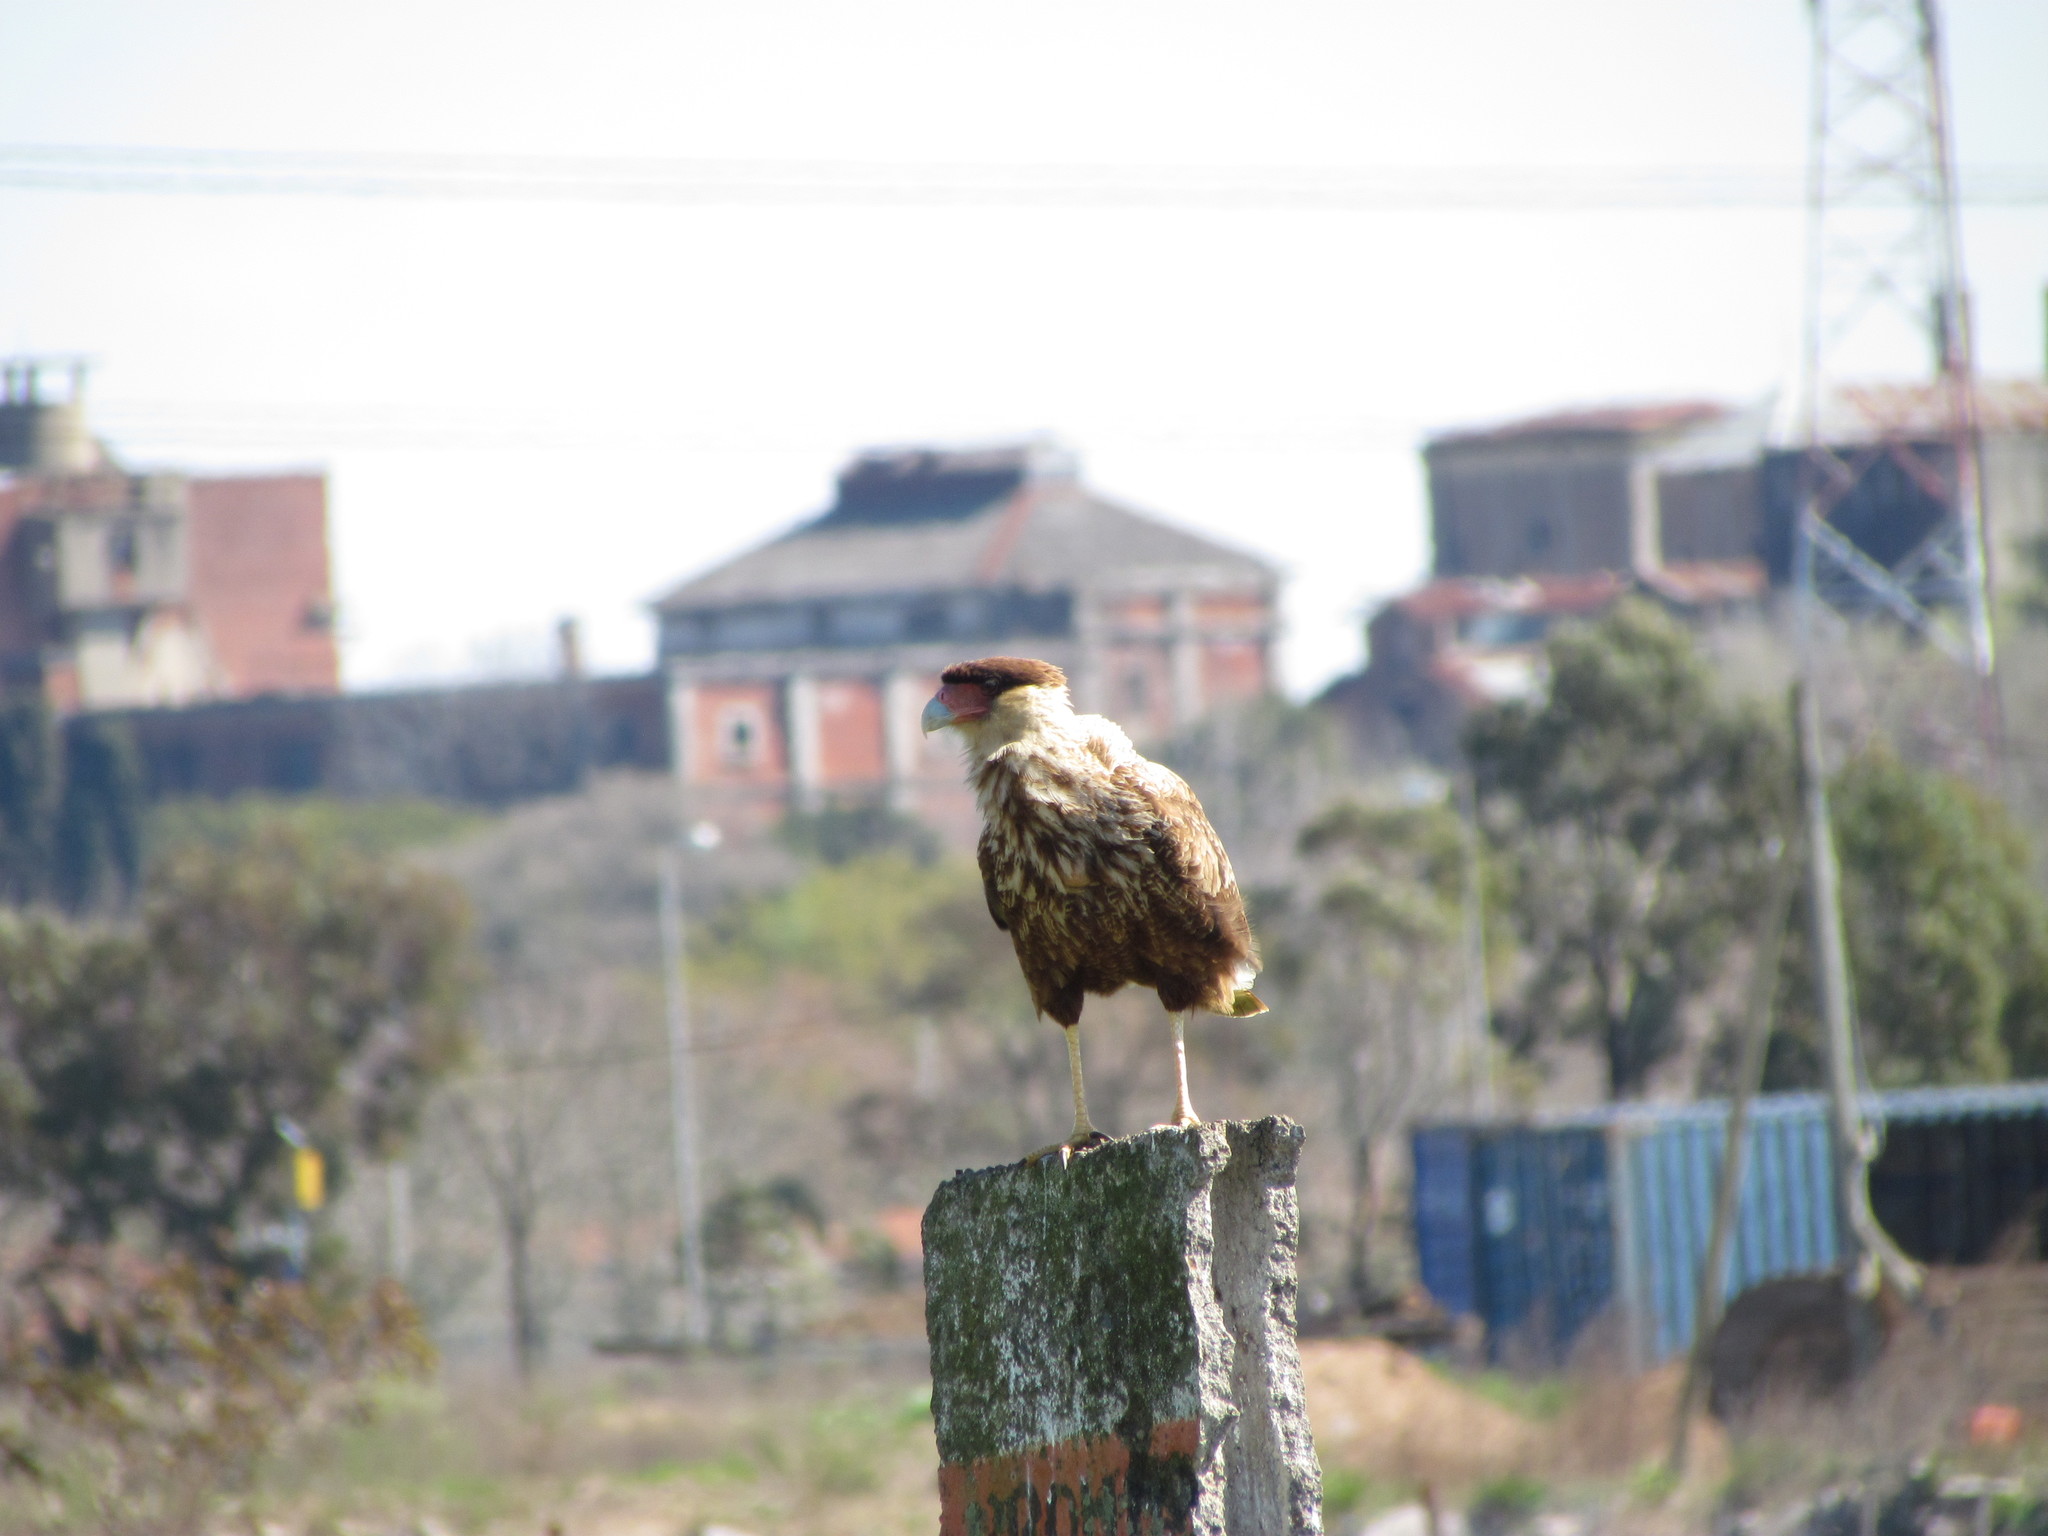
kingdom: Animalia
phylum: Chordata
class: Aves
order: Falconiformes
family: Falconidae
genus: Caracara
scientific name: Caracara plancus
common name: Southern caracara
